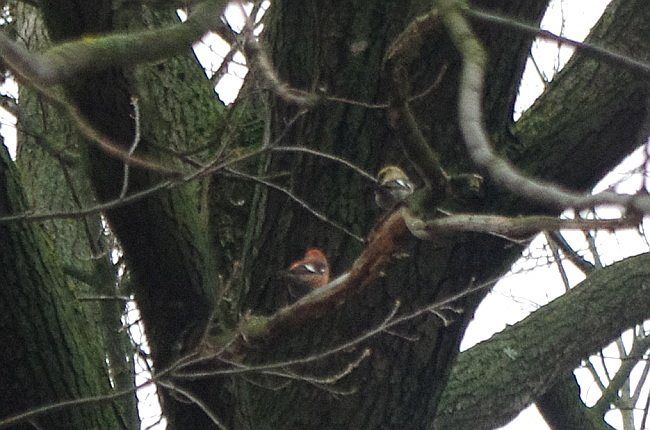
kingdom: Animalia
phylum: Chordata
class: Aves
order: Passeriformes
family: Fringillidae
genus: Loxia
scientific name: Loxia leucoptera
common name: Two-barred crossbill
